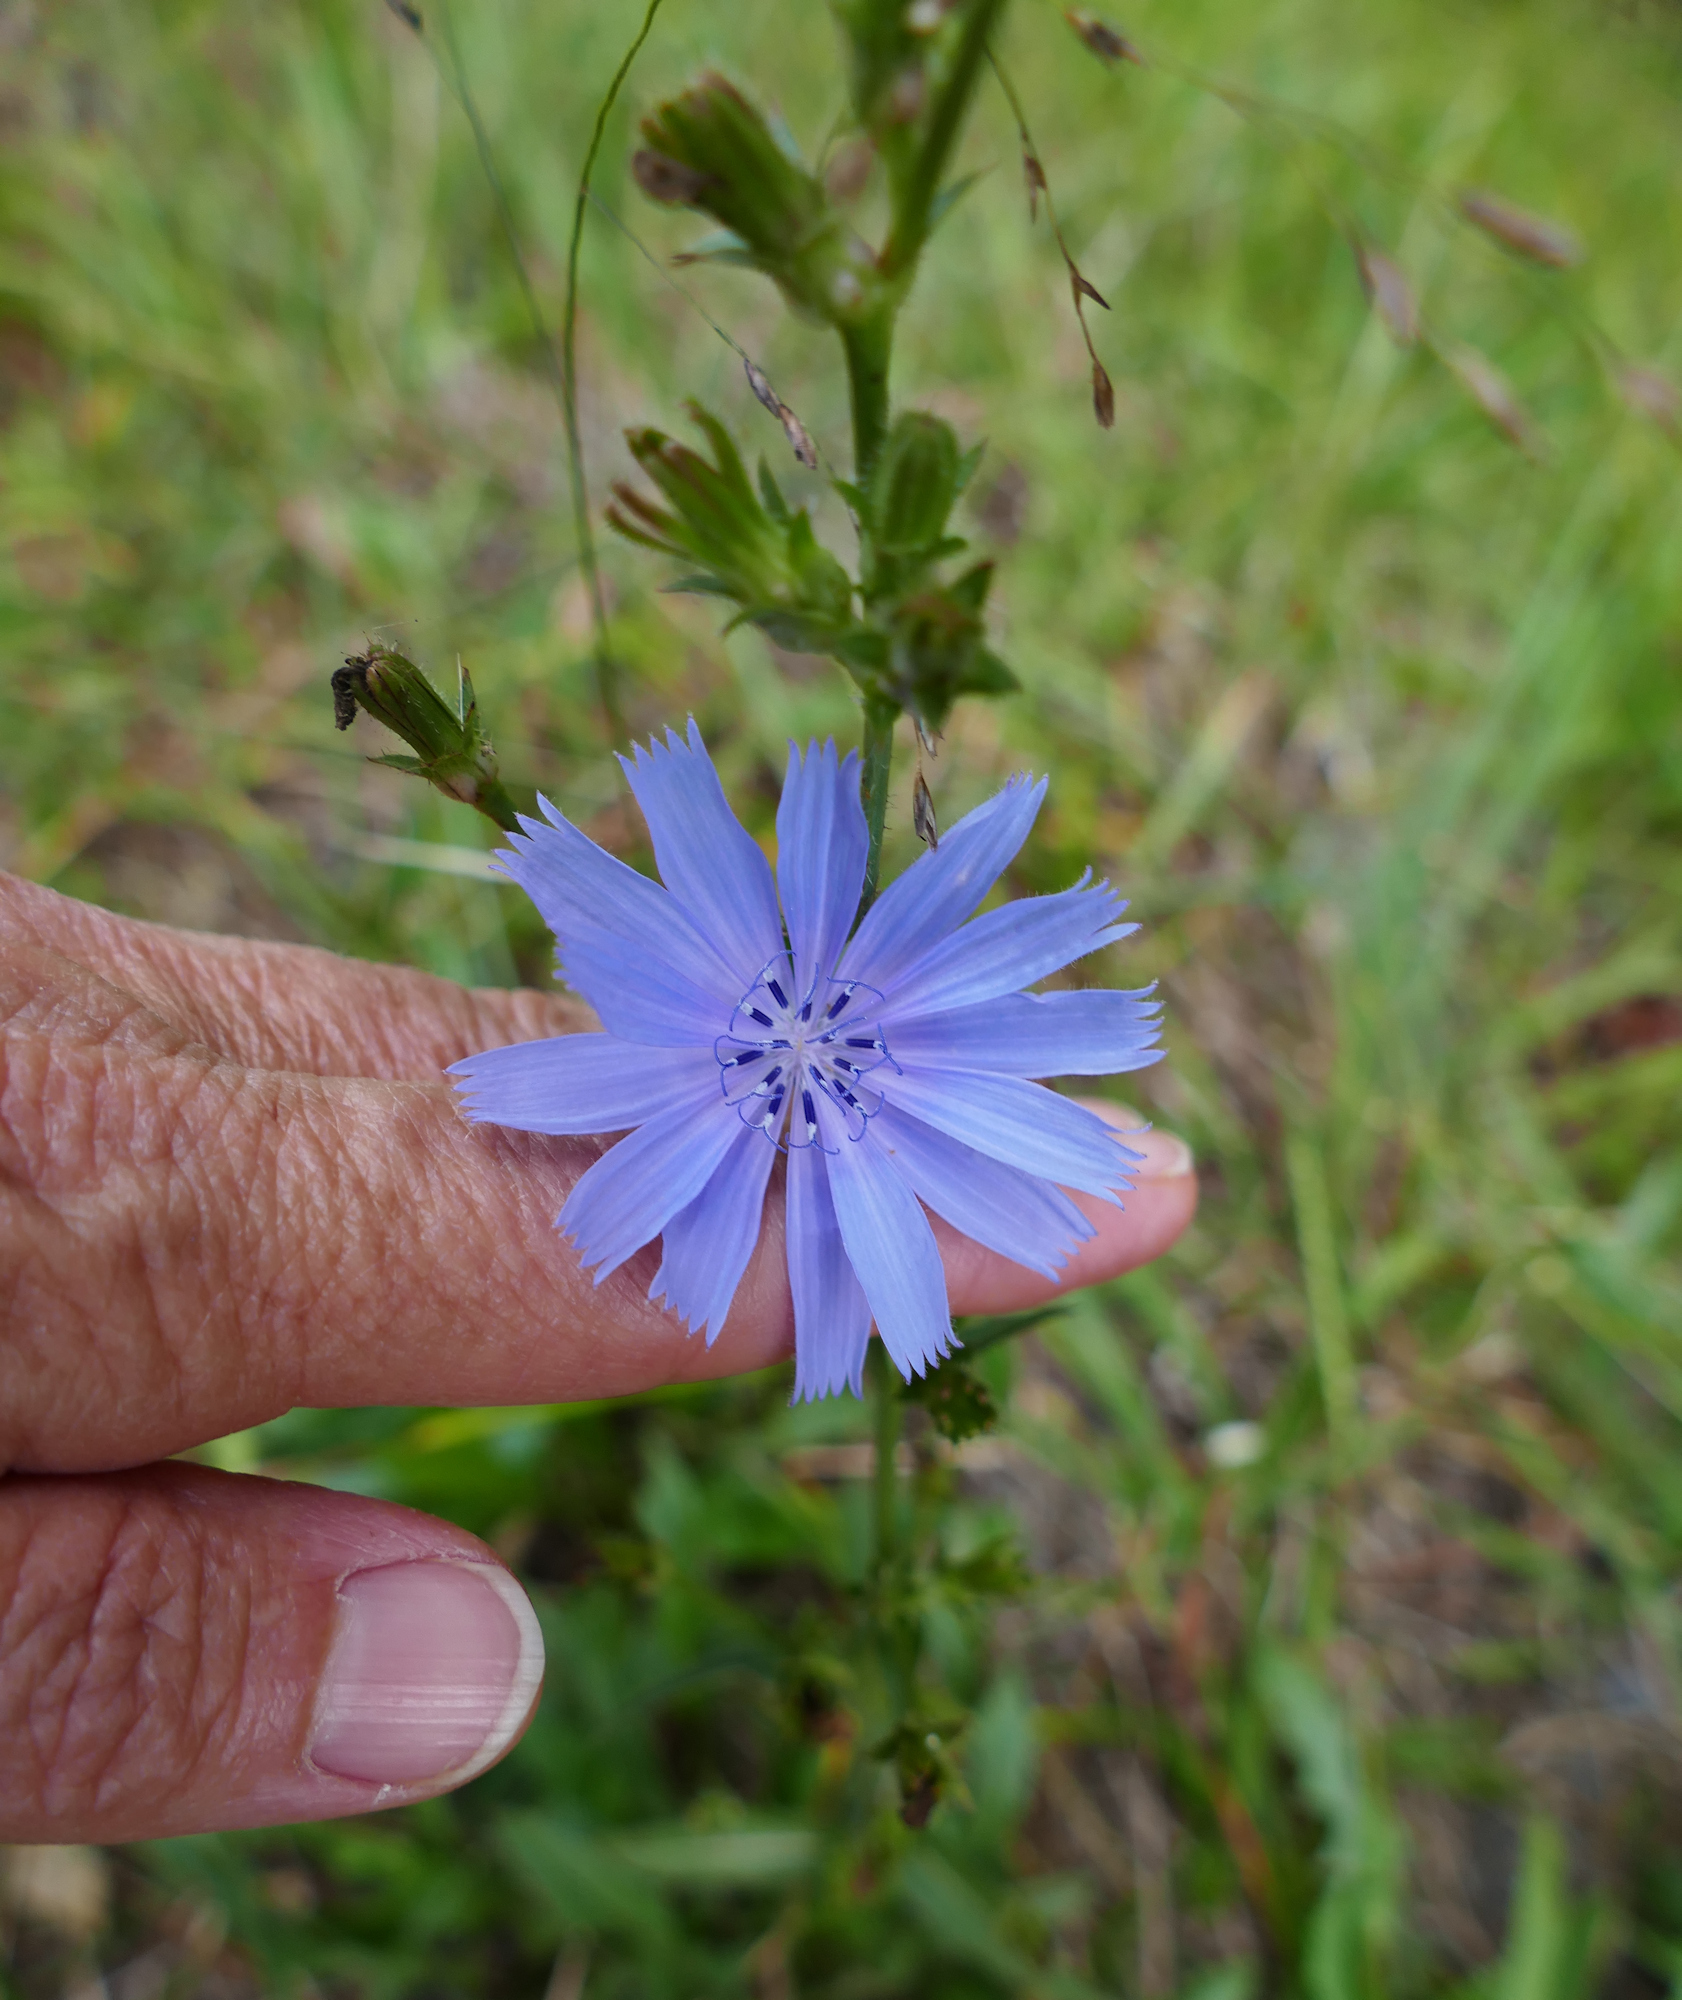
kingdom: Plantae
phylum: Tracheophyta
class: Magnoliopsida
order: Asterales
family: Asteraceae
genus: Cichorium
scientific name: Cichorium intybus
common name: Chicory
